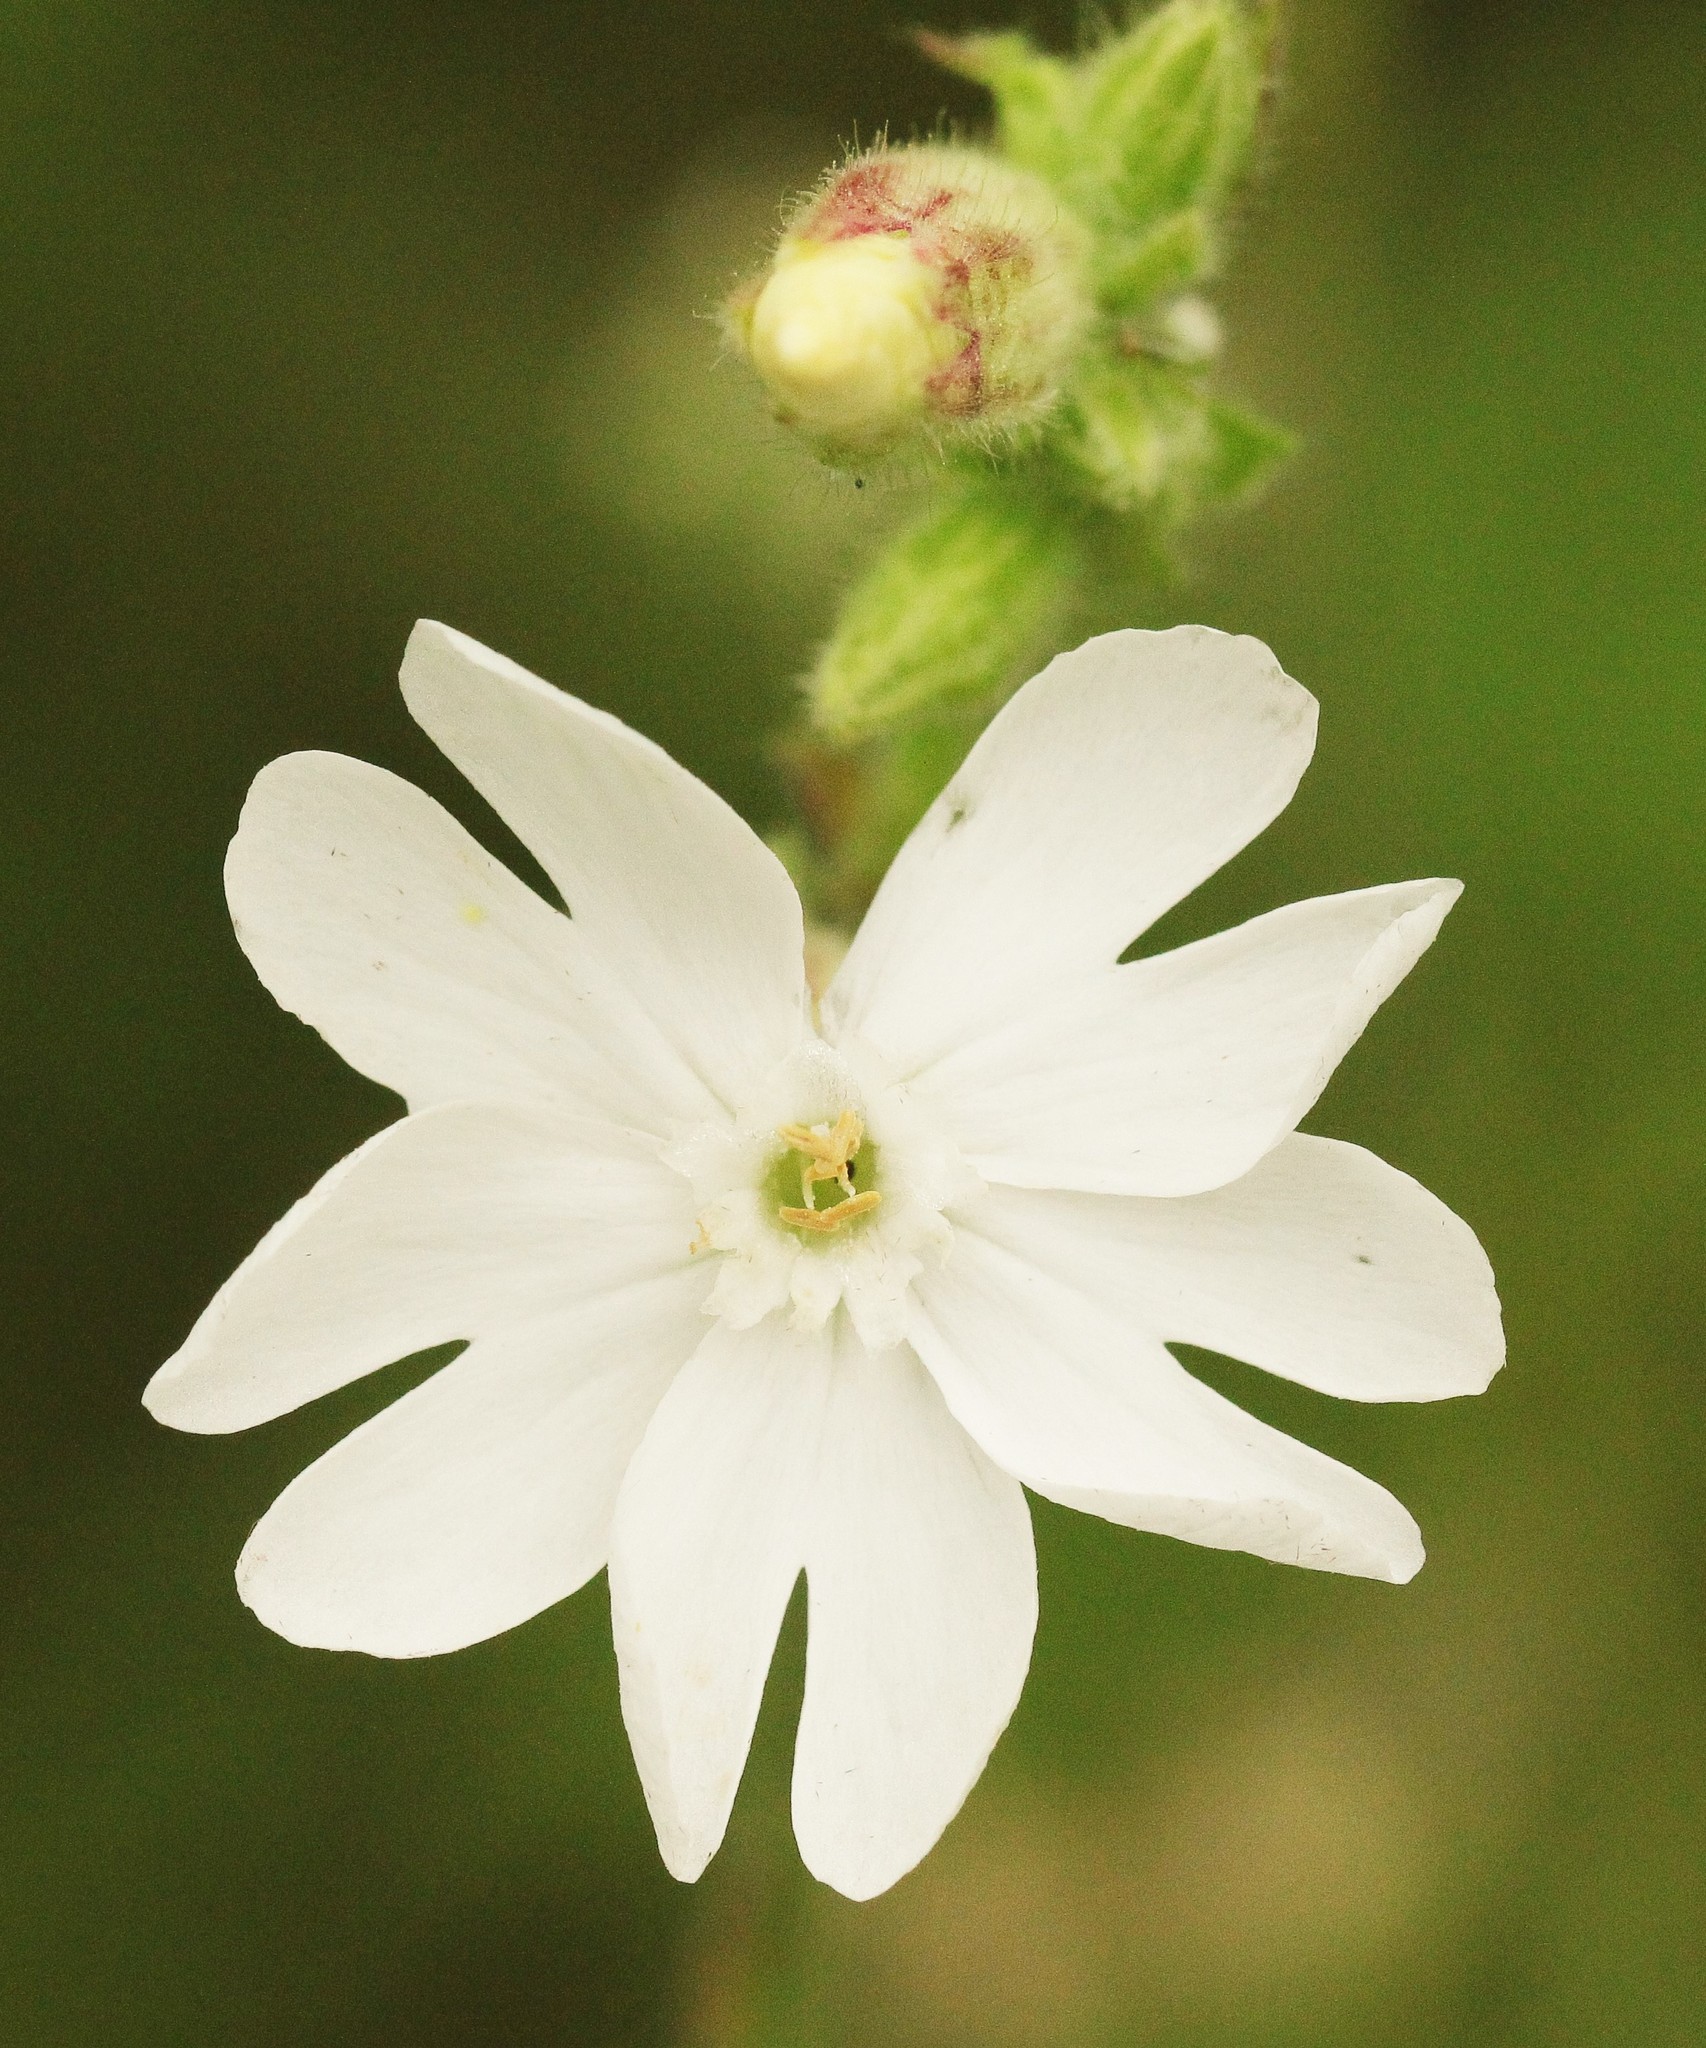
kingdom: Plantae
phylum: Tracheophyta
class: Magnoliopsida
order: Caryophyllales
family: Caryophyllaceae
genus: Silene
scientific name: Silene latifolia
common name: White campion
